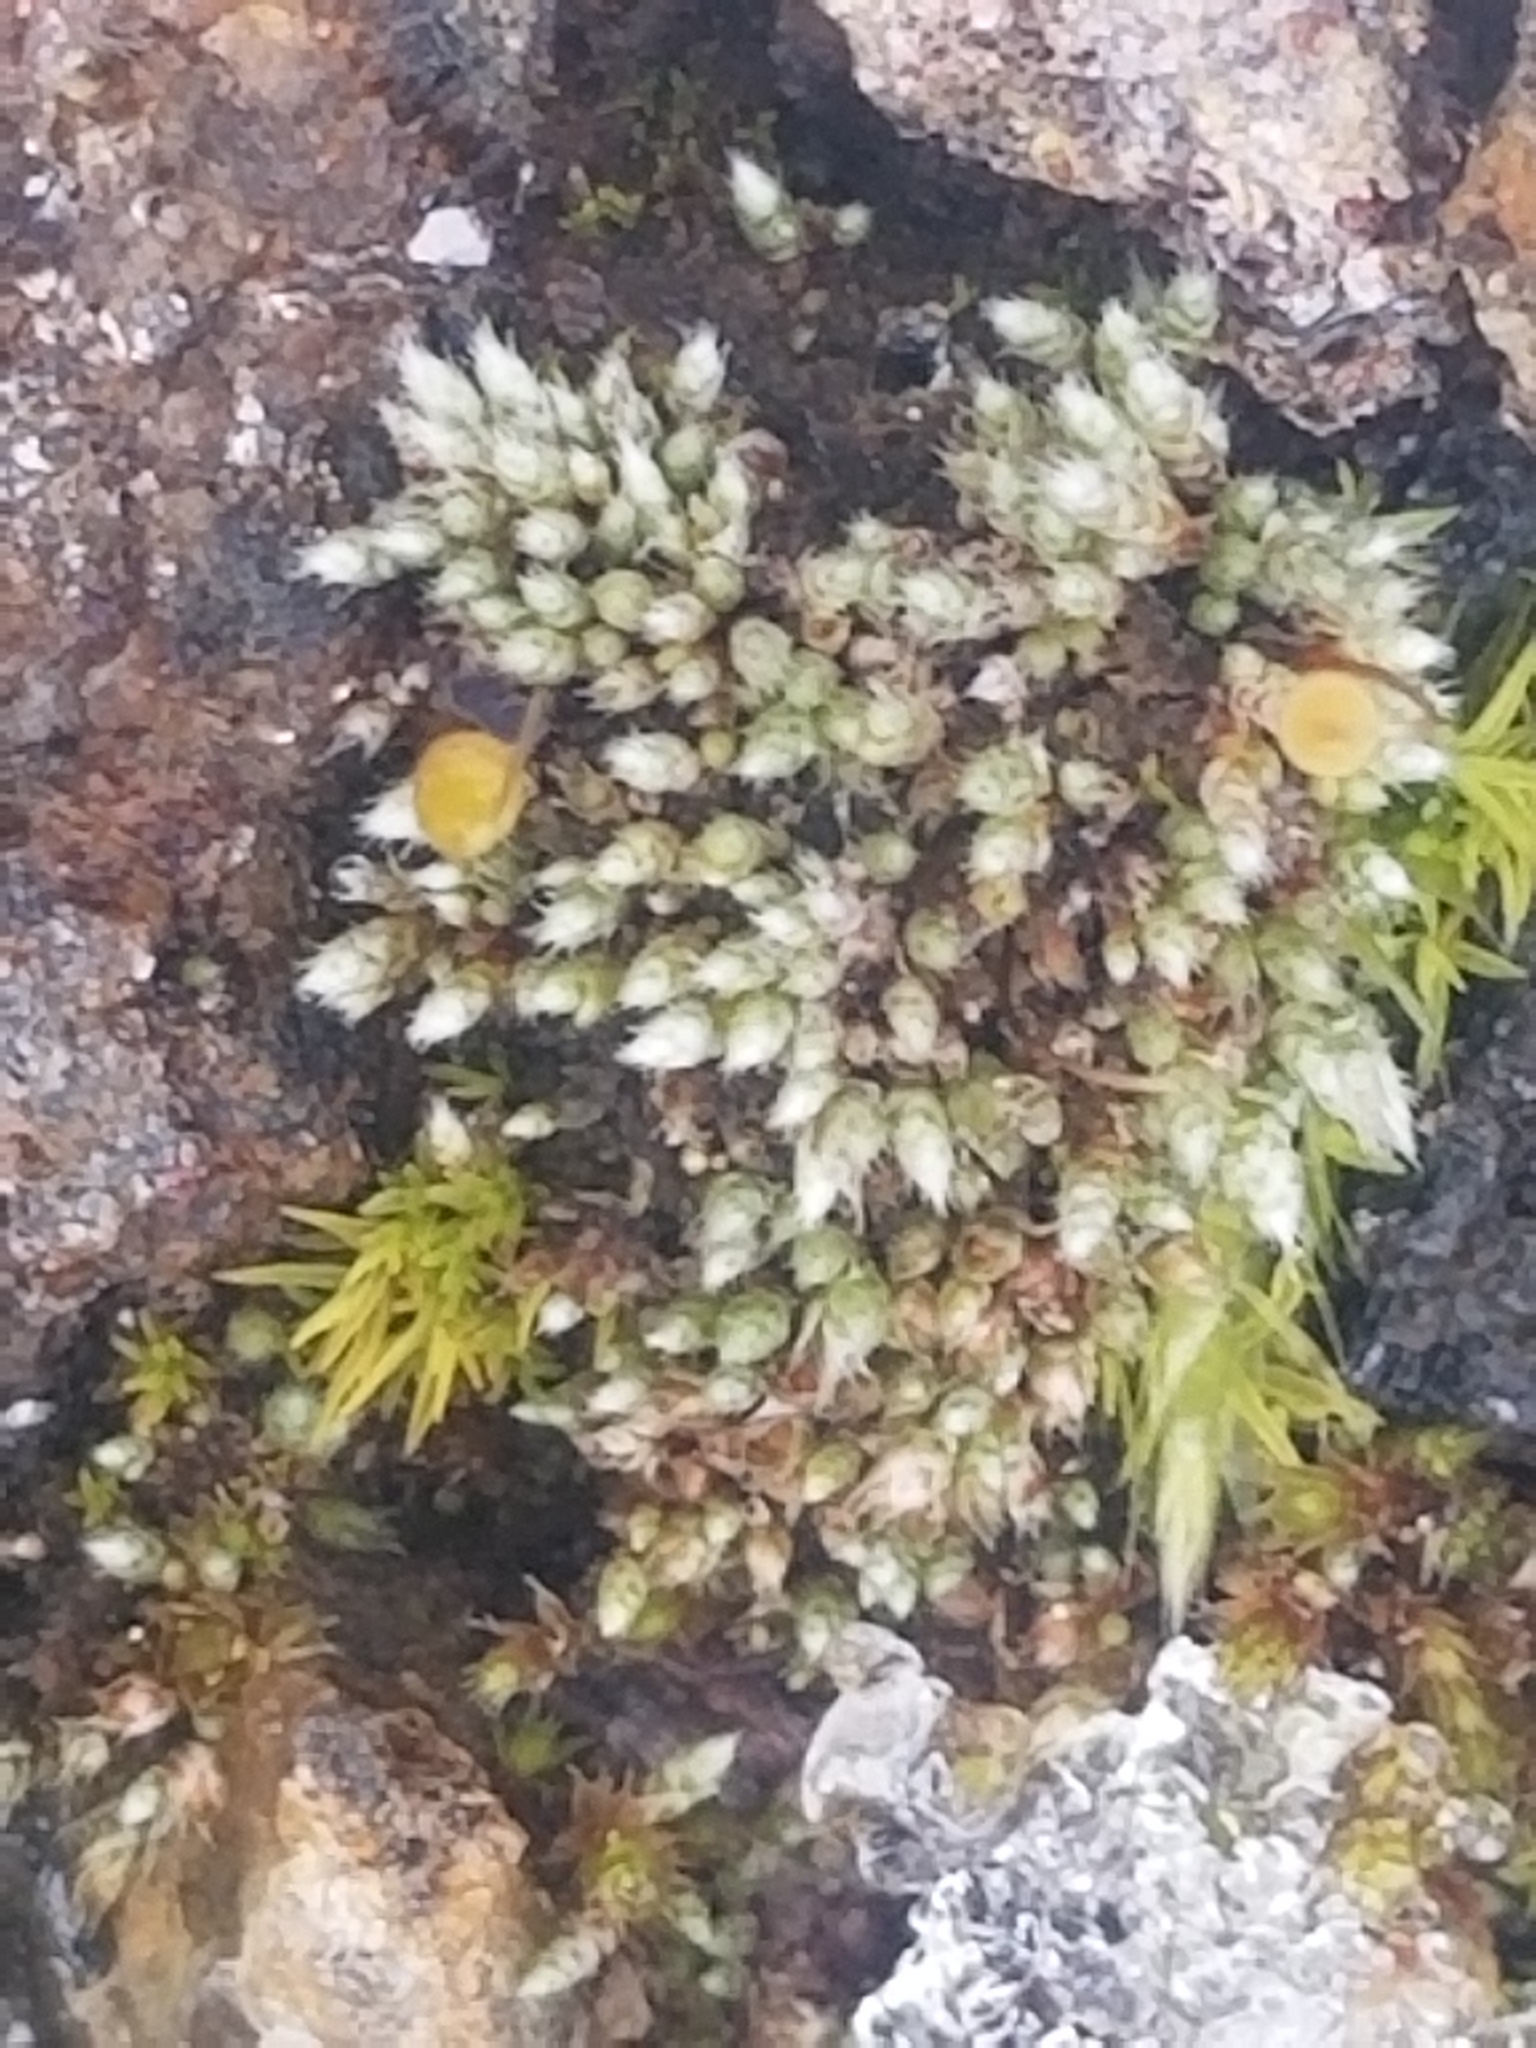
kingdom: Plantae
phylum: Bryophyta
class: Bryopsida
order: Bryales
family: Bryaceae
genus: Bryum
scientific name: Bryum argenteum
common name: Silver-moss
